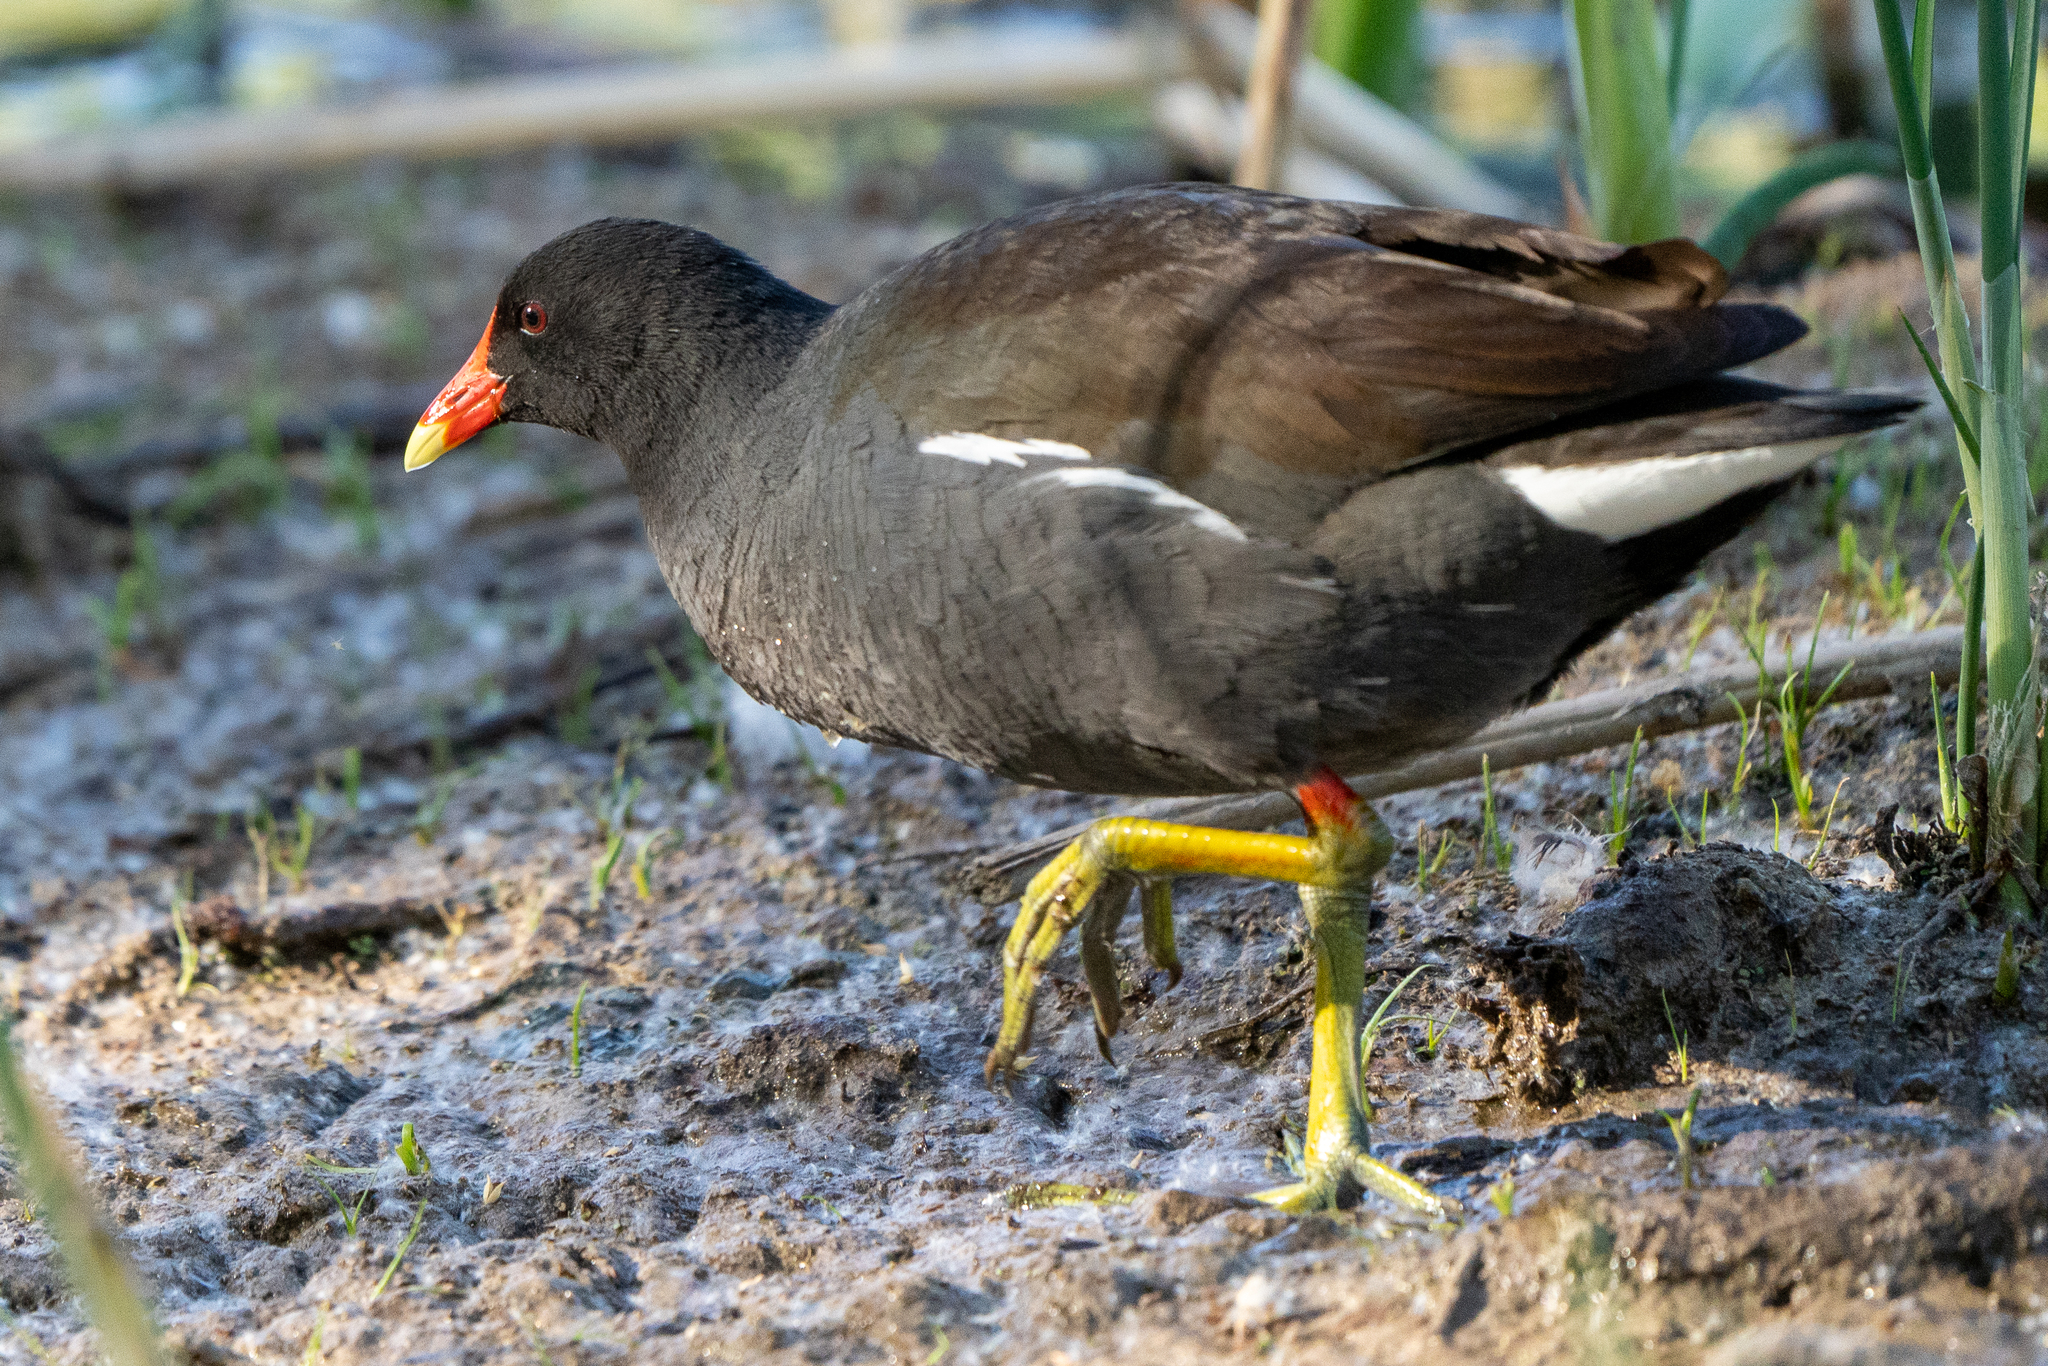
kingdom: Animalia
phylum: Chordata
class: Aves
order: Gruiformes
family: Rallidae
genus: Gallinula
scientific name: Gallinula chloropus
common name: Common moorhen
